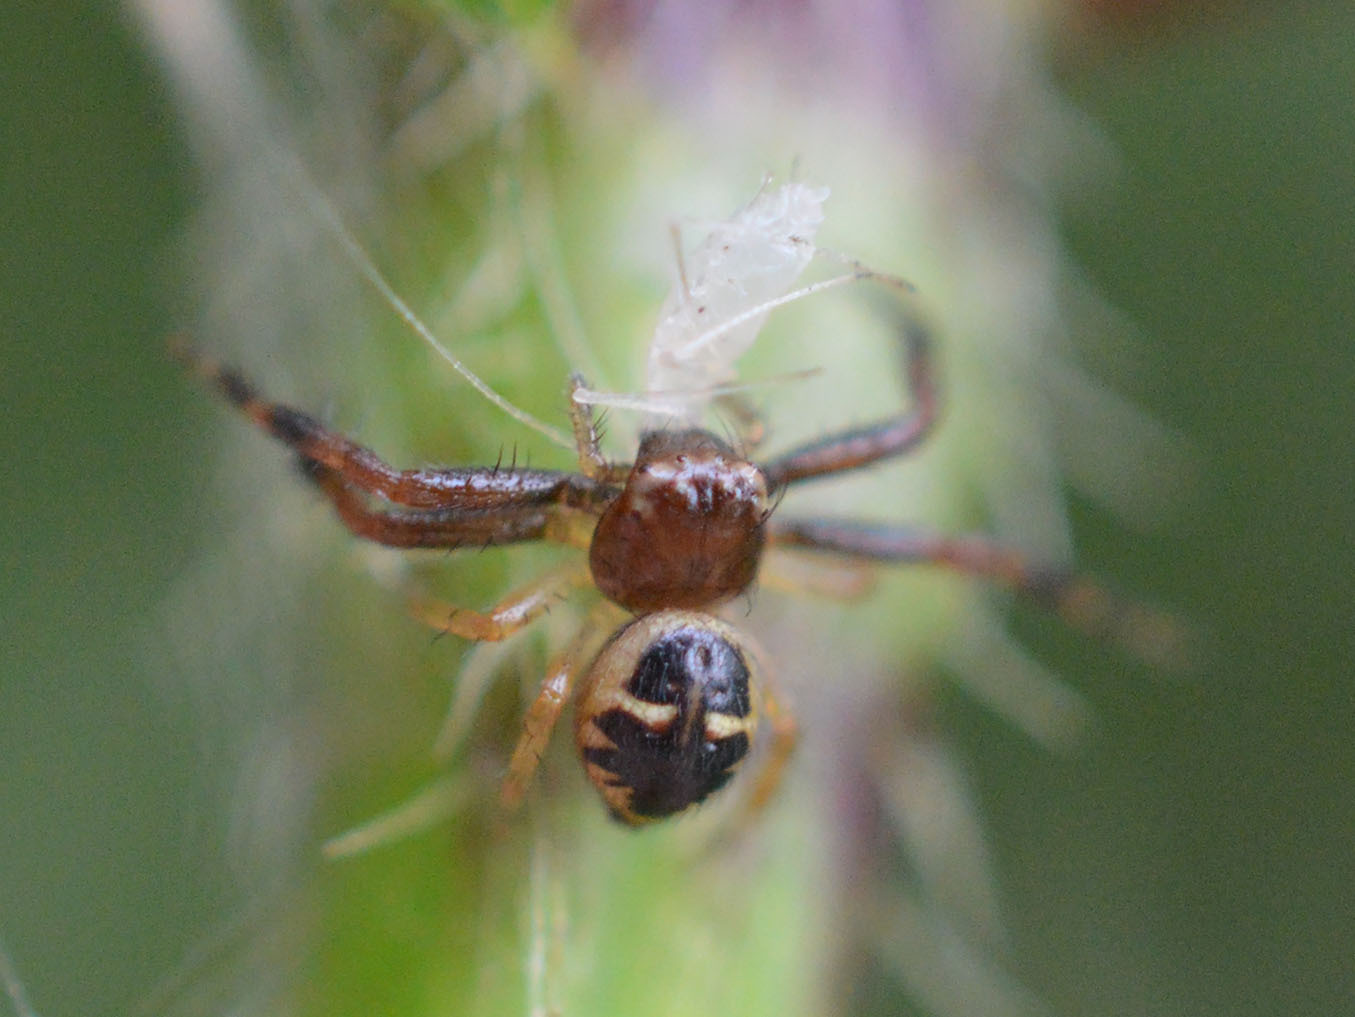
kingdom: Animalia
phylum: Arthropoda
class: Arachnida
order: Araneae
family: Thomisidae
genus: Synema
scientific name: Synema globosum
